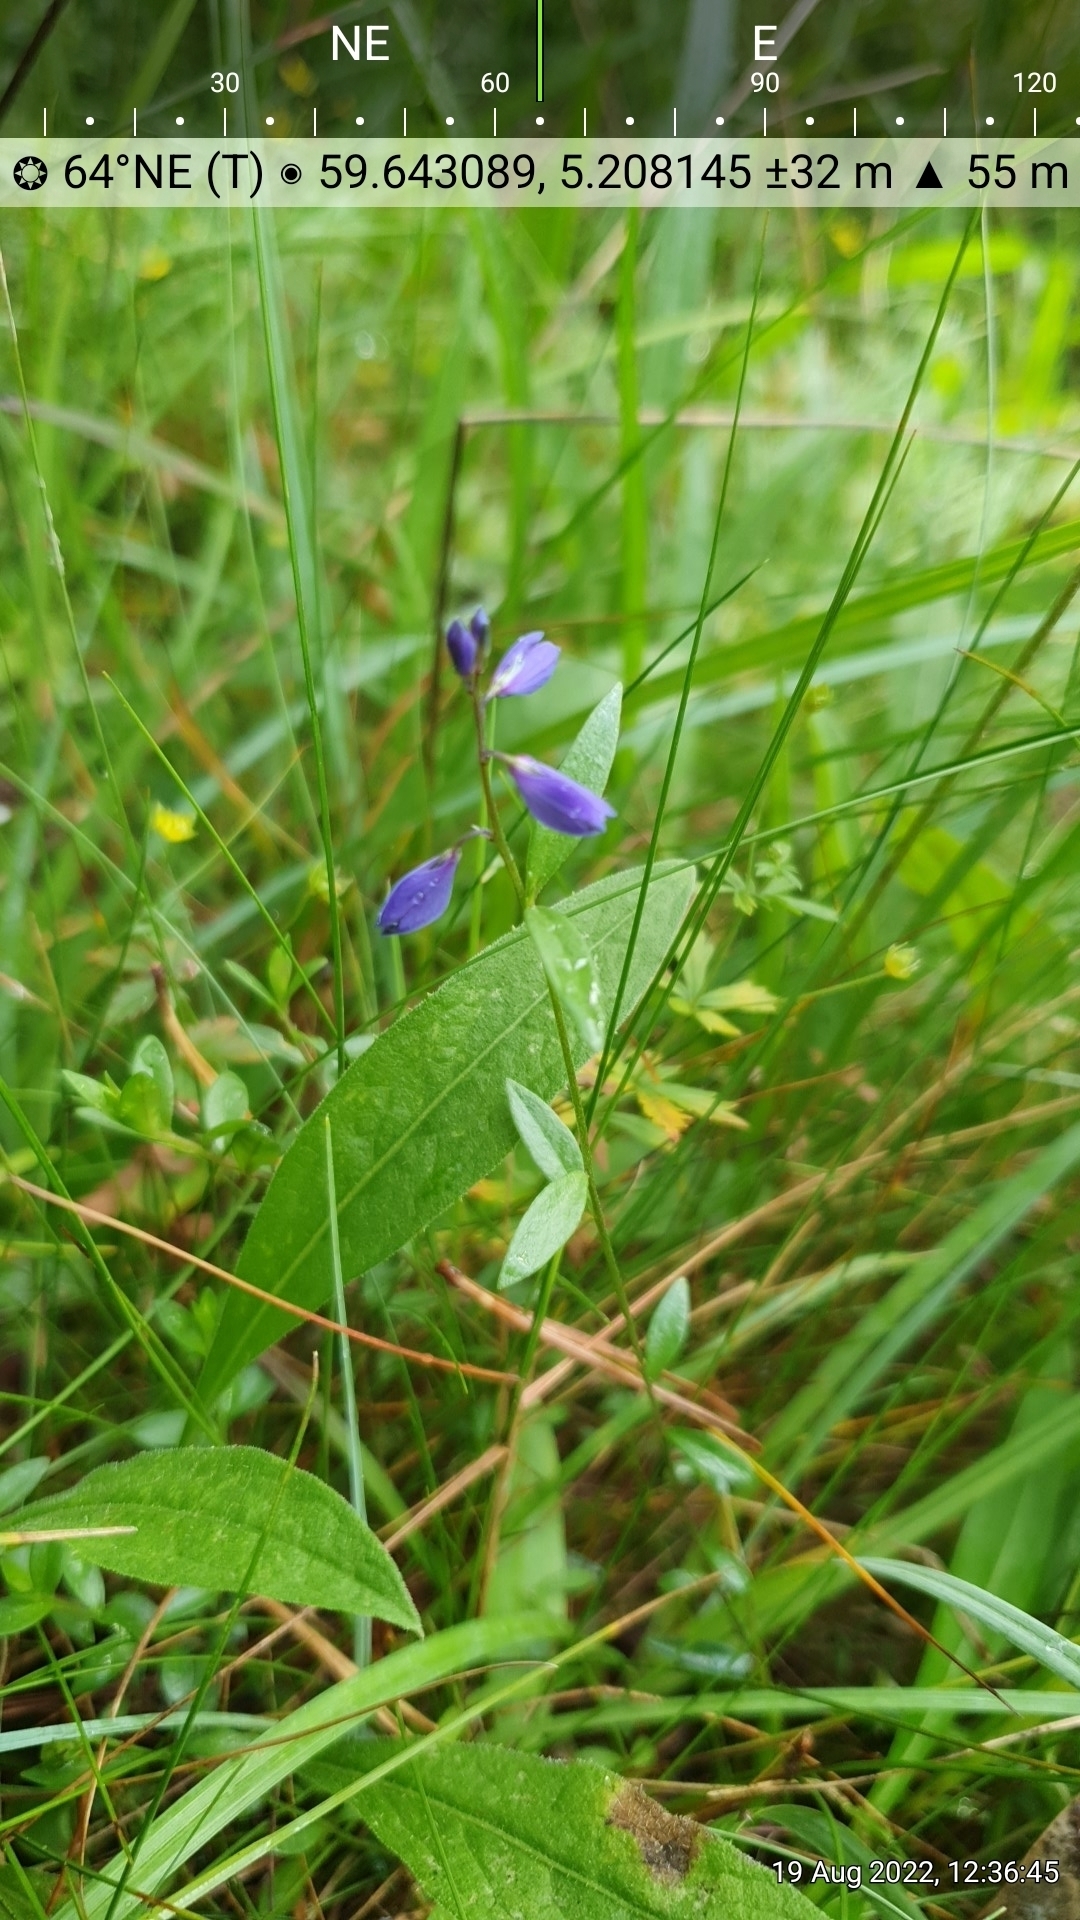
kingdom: Plantae
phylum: Tracheophyta
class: Magnoliopsida
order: Fabales
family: Polygalaceae
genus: Polygala
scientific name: Polygala serpyllifolia
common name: Heath milkwort
